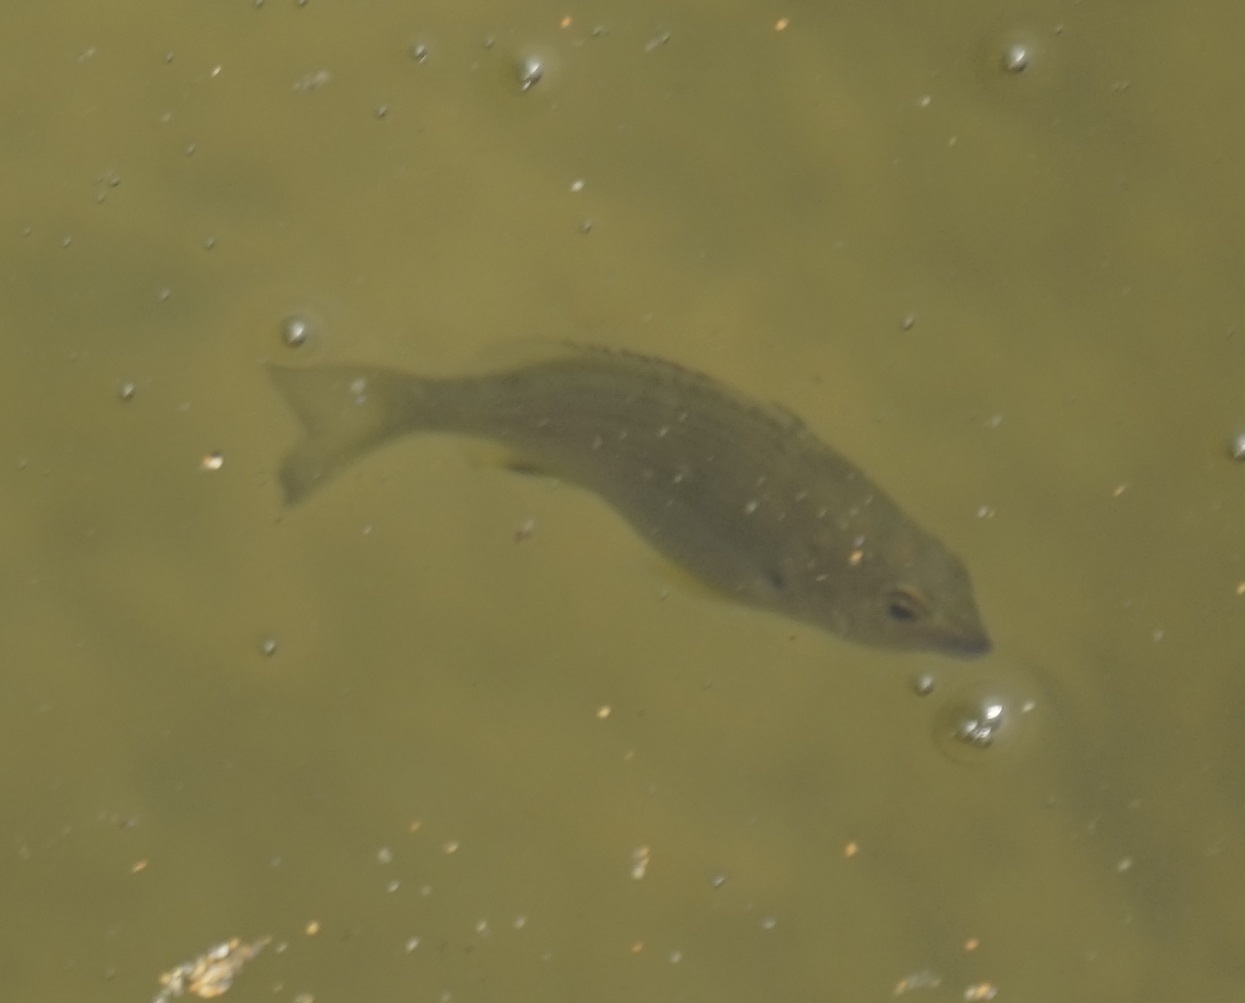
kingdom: Animalia
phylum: Chordata
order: Perciformes
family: Sparidae
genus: Acanthopagrus
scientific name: Acanthopagrus australis
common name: Surf bream
